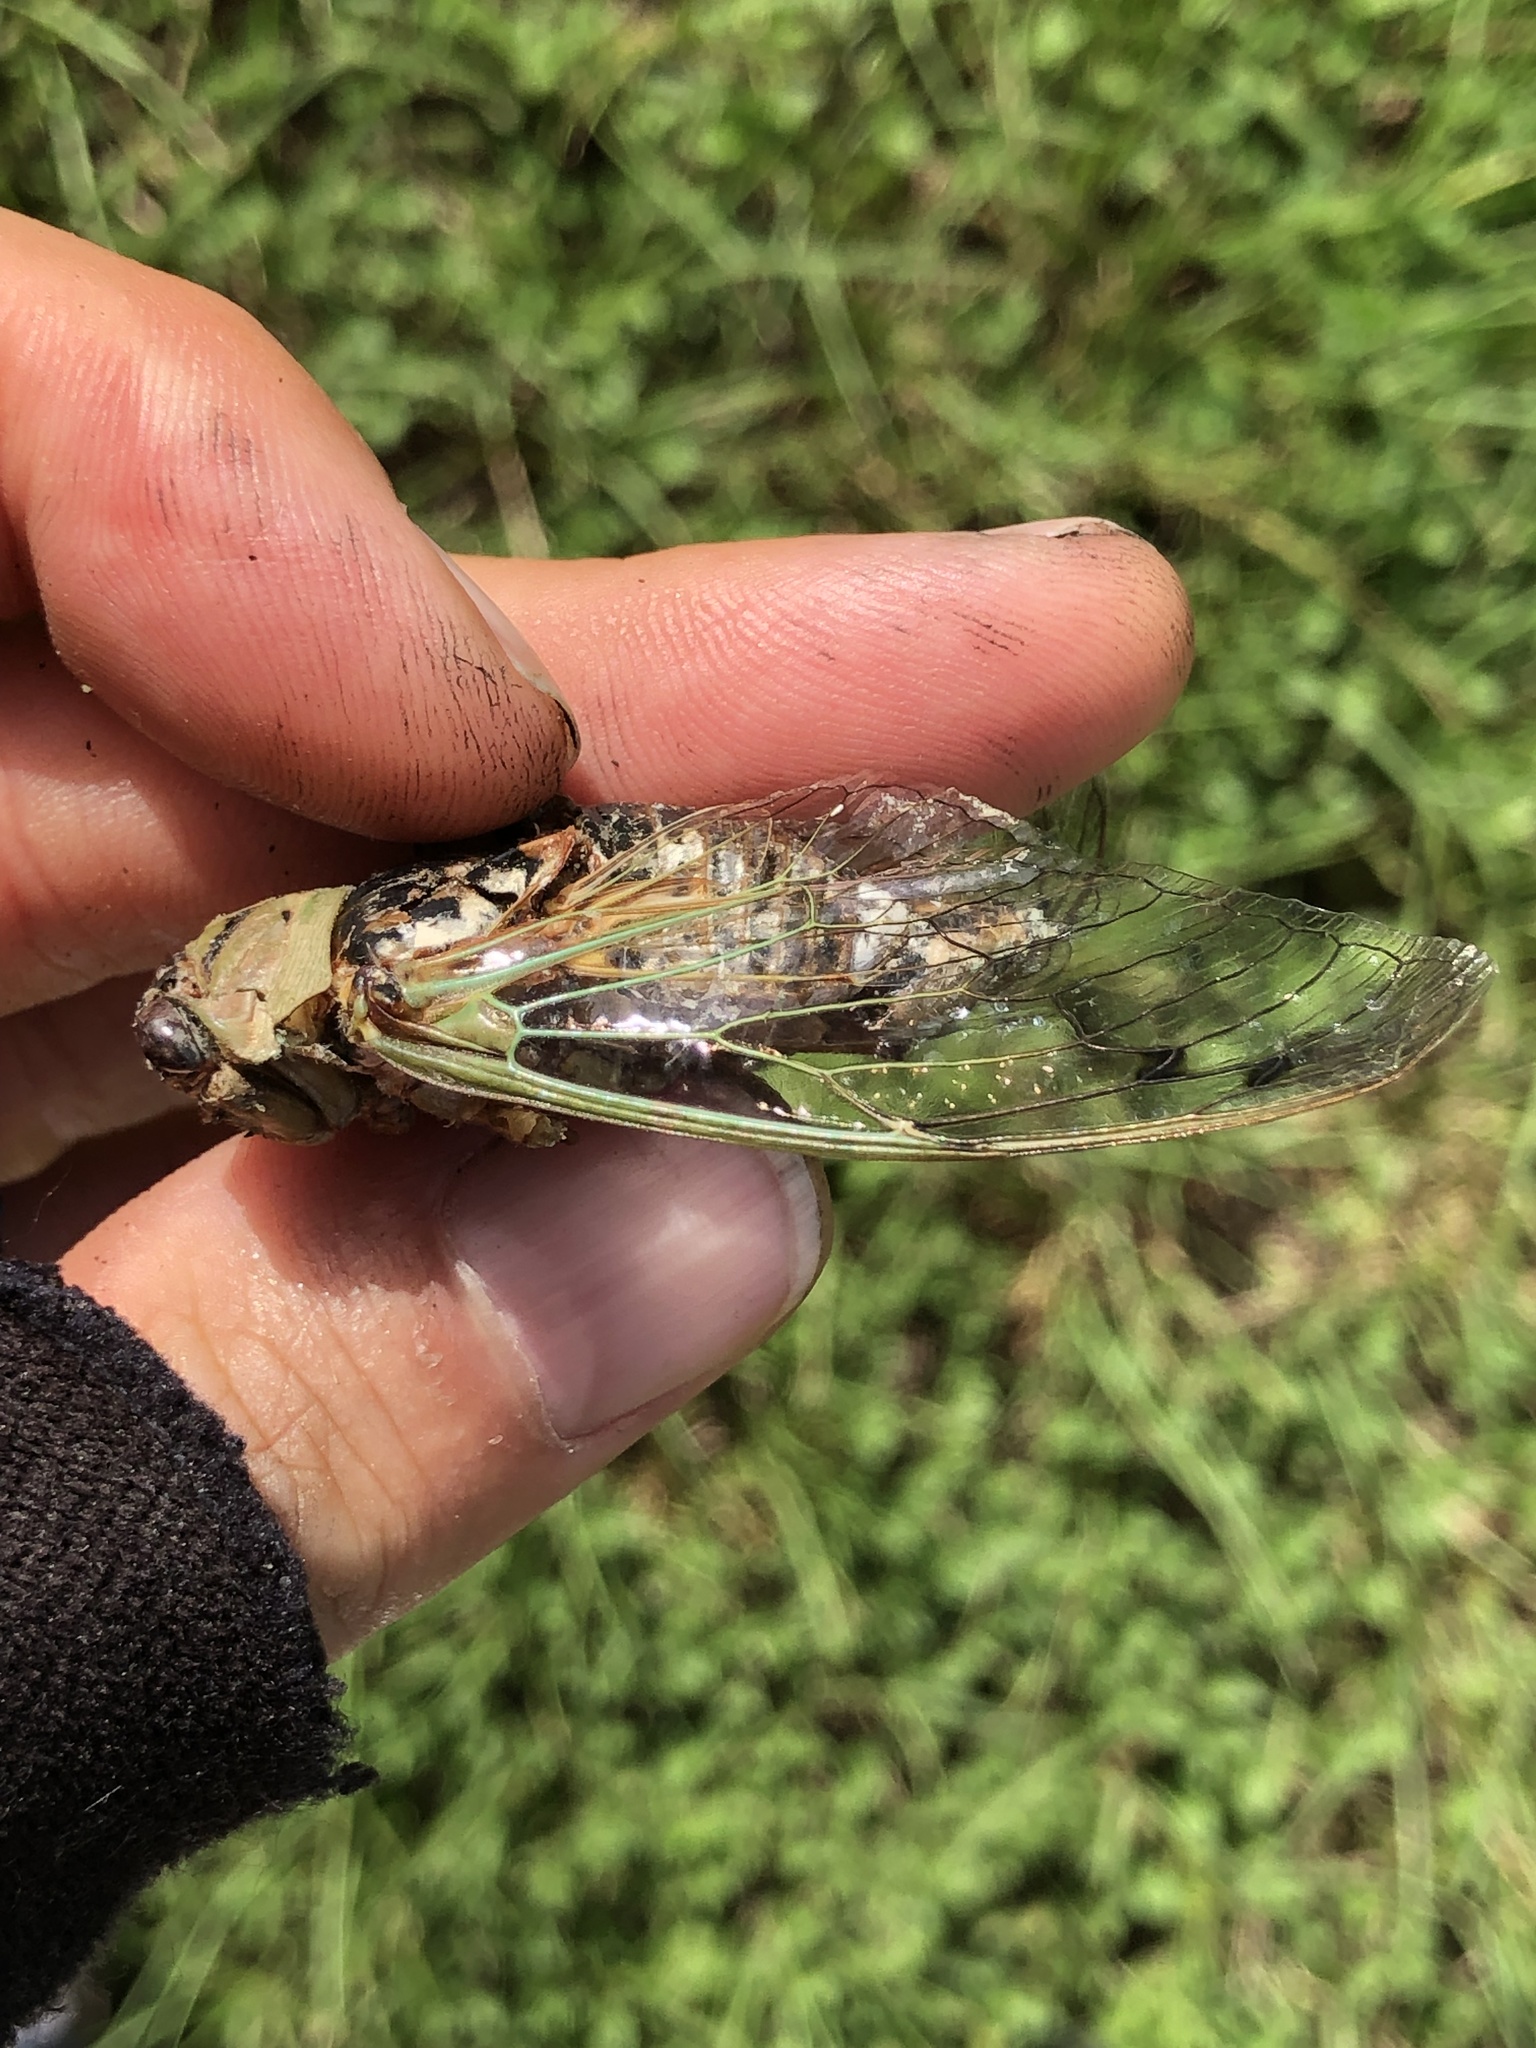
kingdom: Animalia
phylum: Arthropoda
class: Insecta
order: Hemiptera
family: Cicadidae
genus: Megatibicen
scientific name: Megatibicen resh
